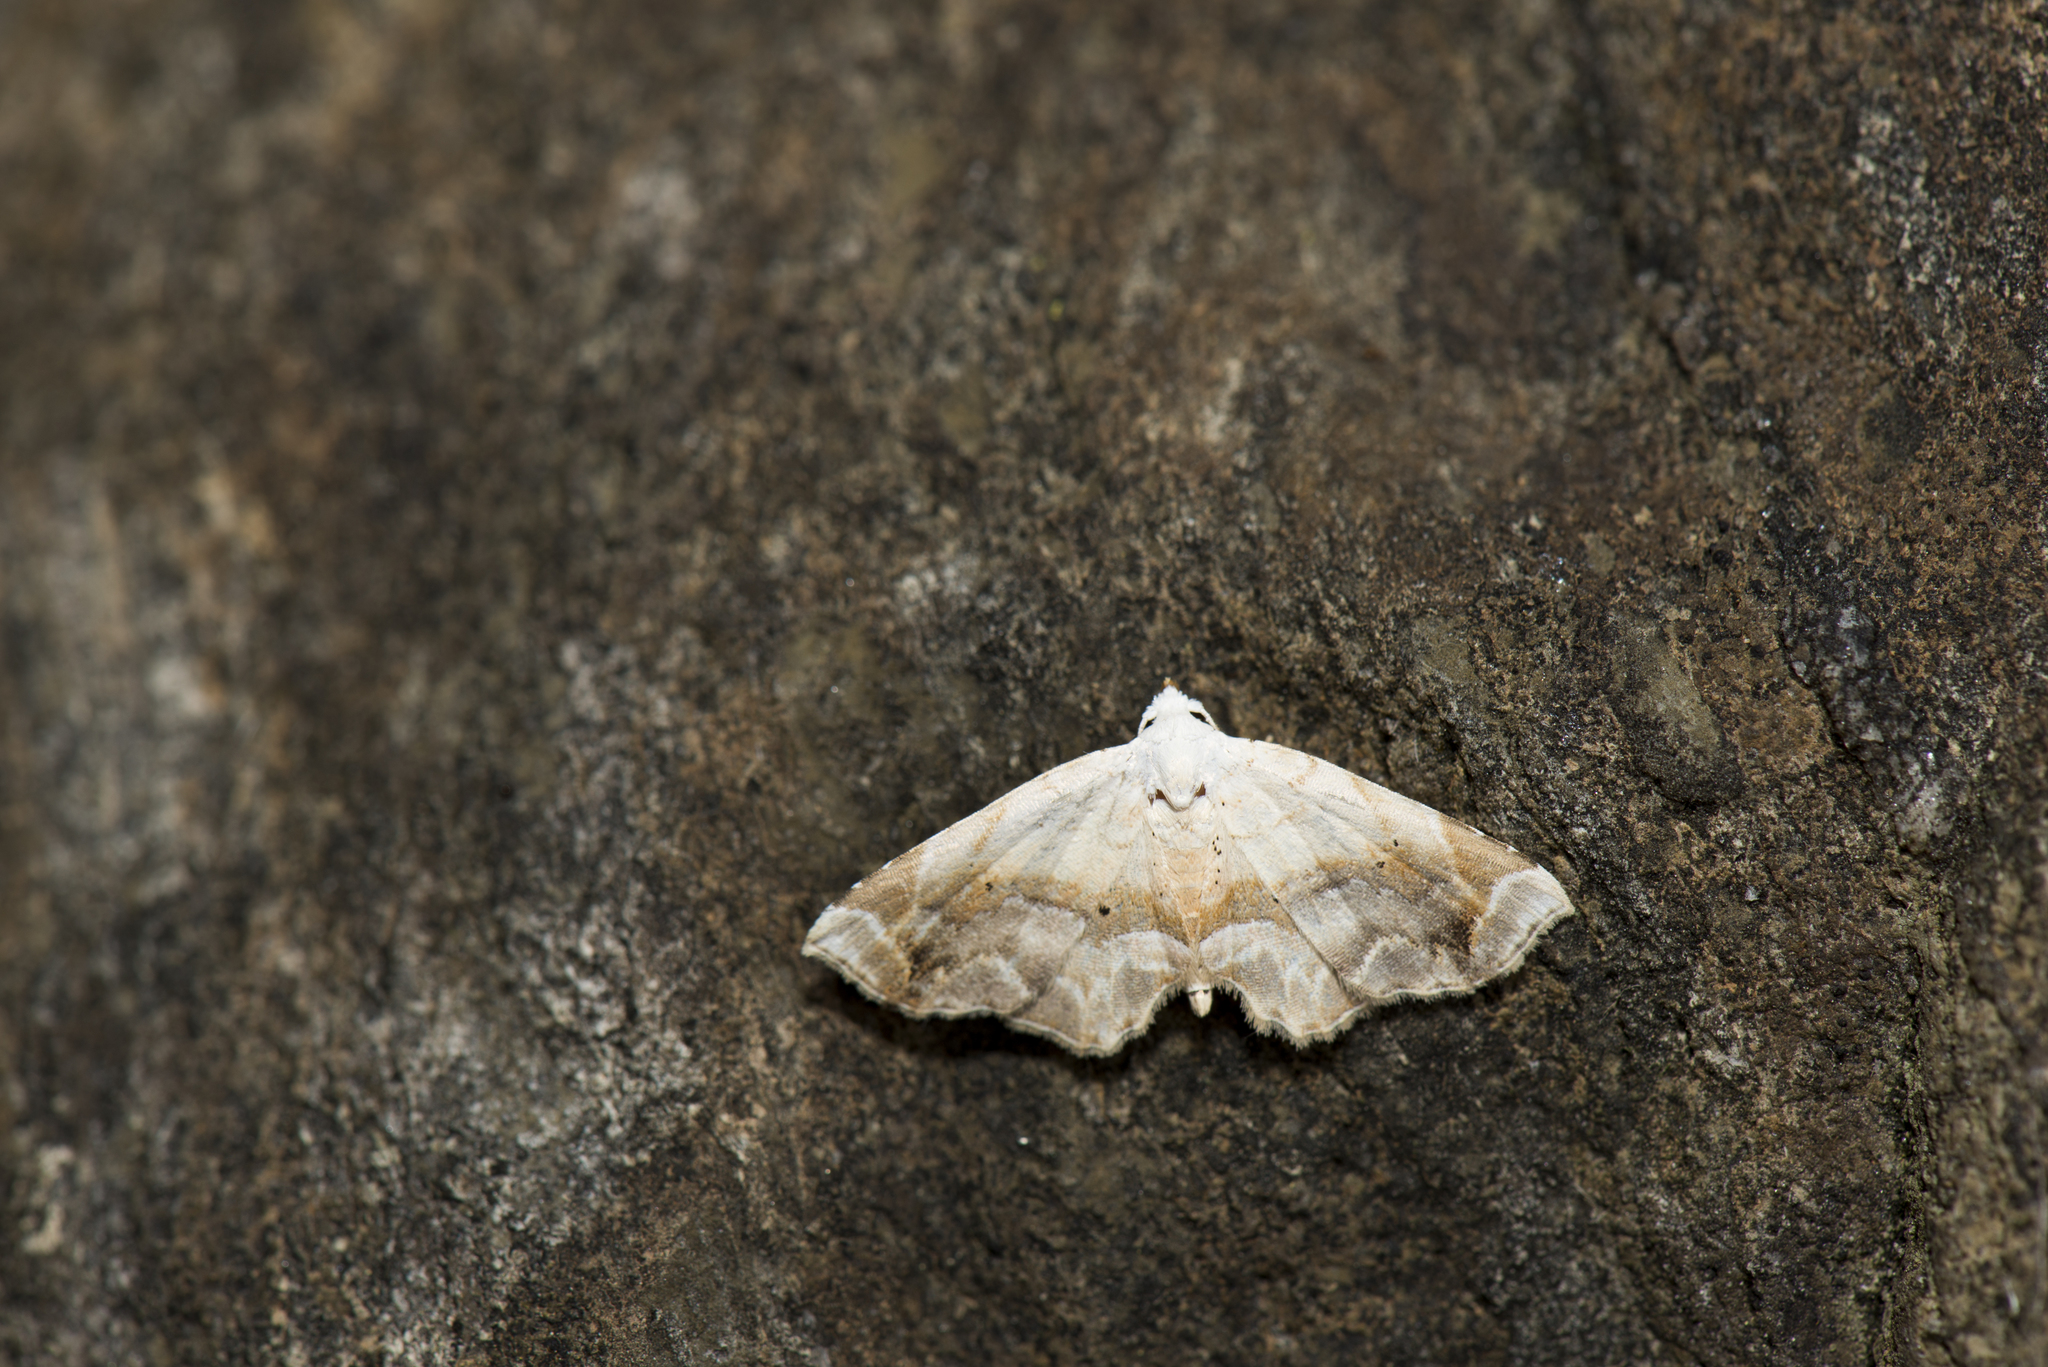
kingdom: Animalia
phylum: Arthropoda
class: Insecta
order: Lepidoptera
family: Noctuidae
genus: Eugraptoblemma
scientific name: Eugraptoblemma pictalis
